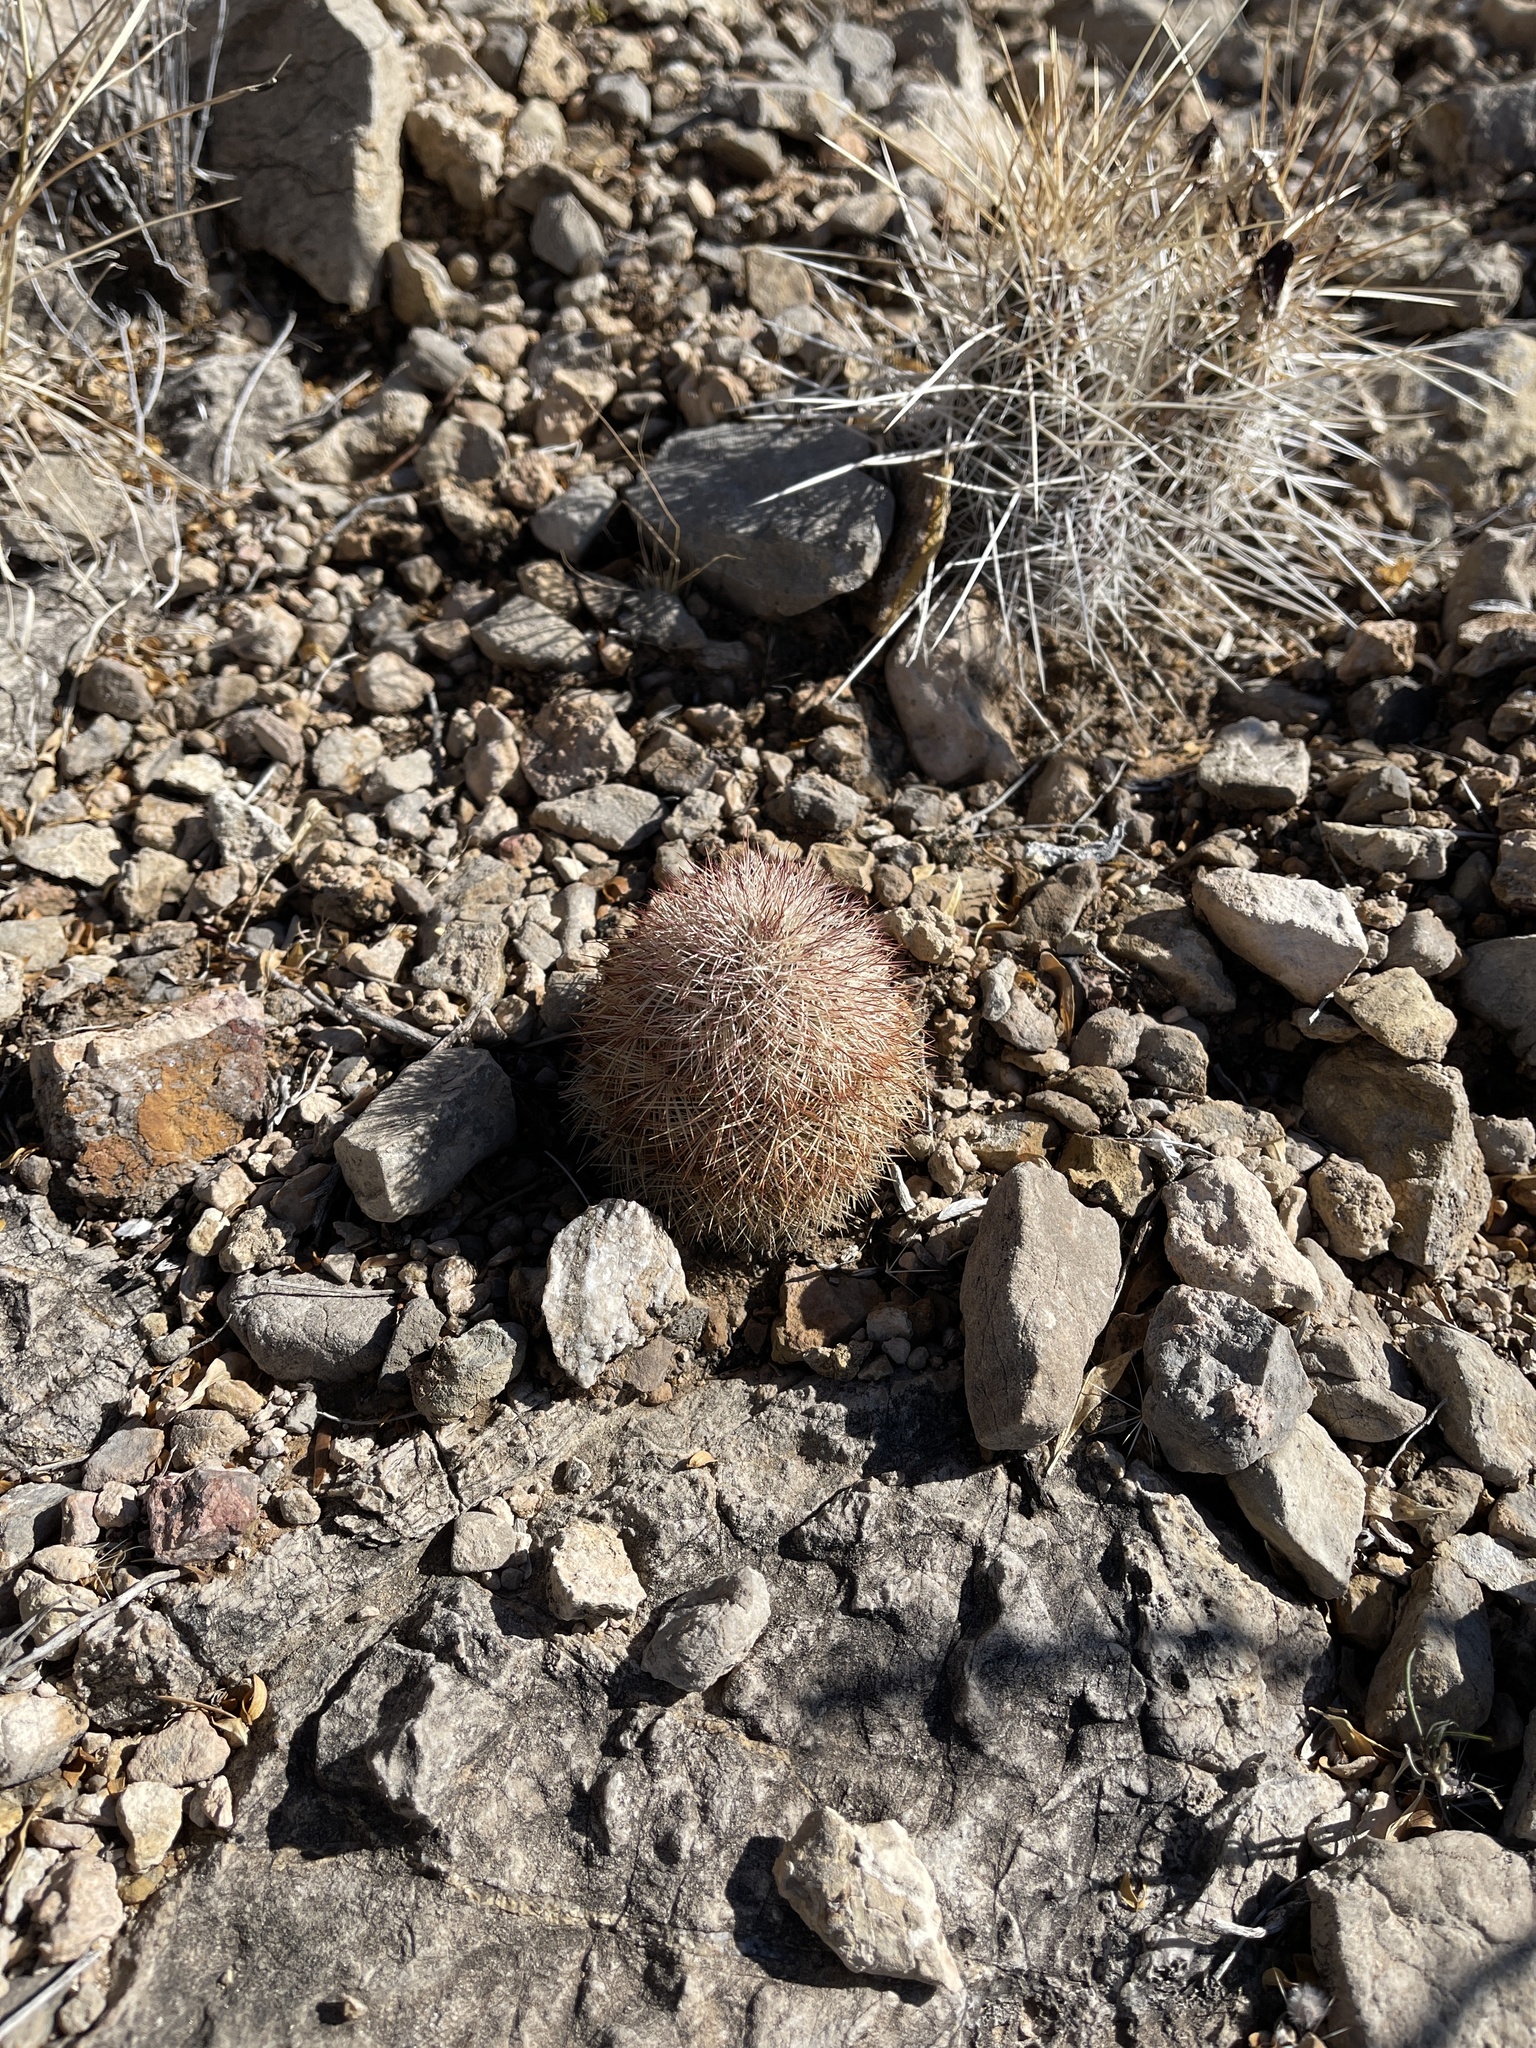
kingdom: Plantae
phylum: Tracheophyta
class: Magnoliopsida
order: Caryophyllales
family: Cactaceae
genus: Echinocereus
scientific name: Echinocereus dasyacanthus
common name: Spiny hedgehog cactus
